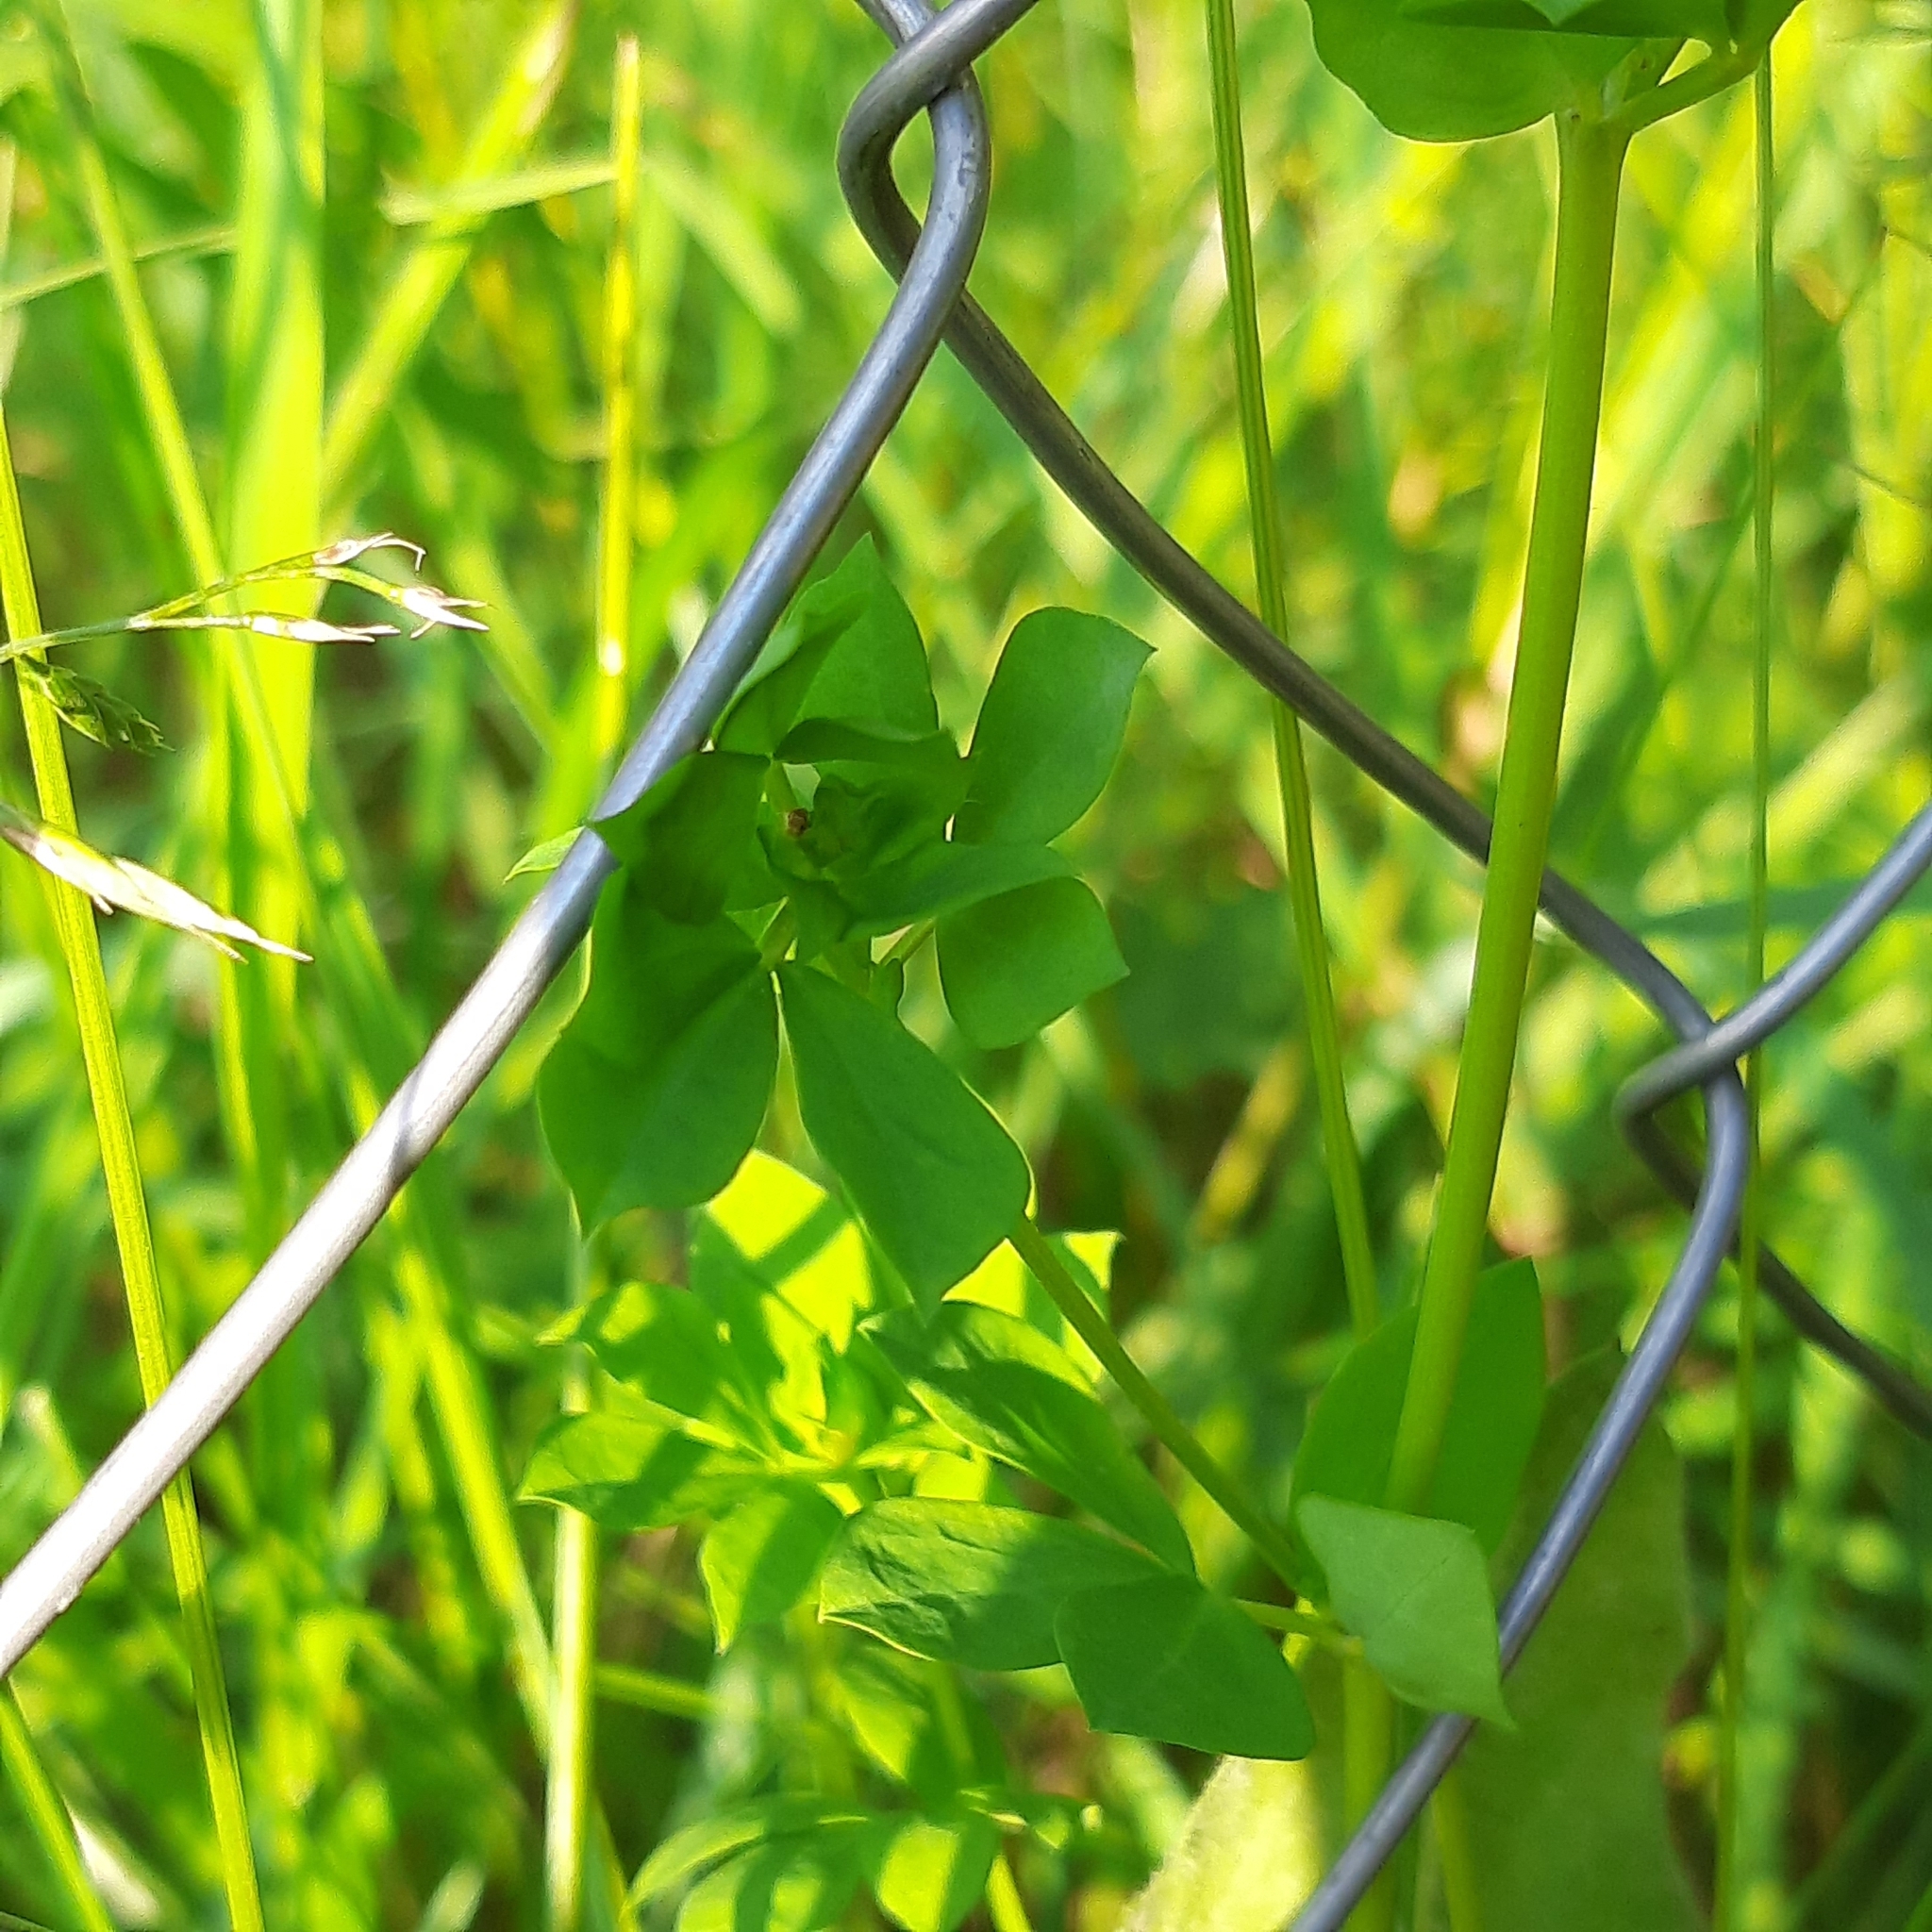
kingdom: Plantae
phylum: Tracheophyta
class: Magnoliopsida
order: Fabales
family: Fabaceae
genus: Lotus
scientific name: Lotus corniculatus
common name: Common bird's-foot-trefoil
